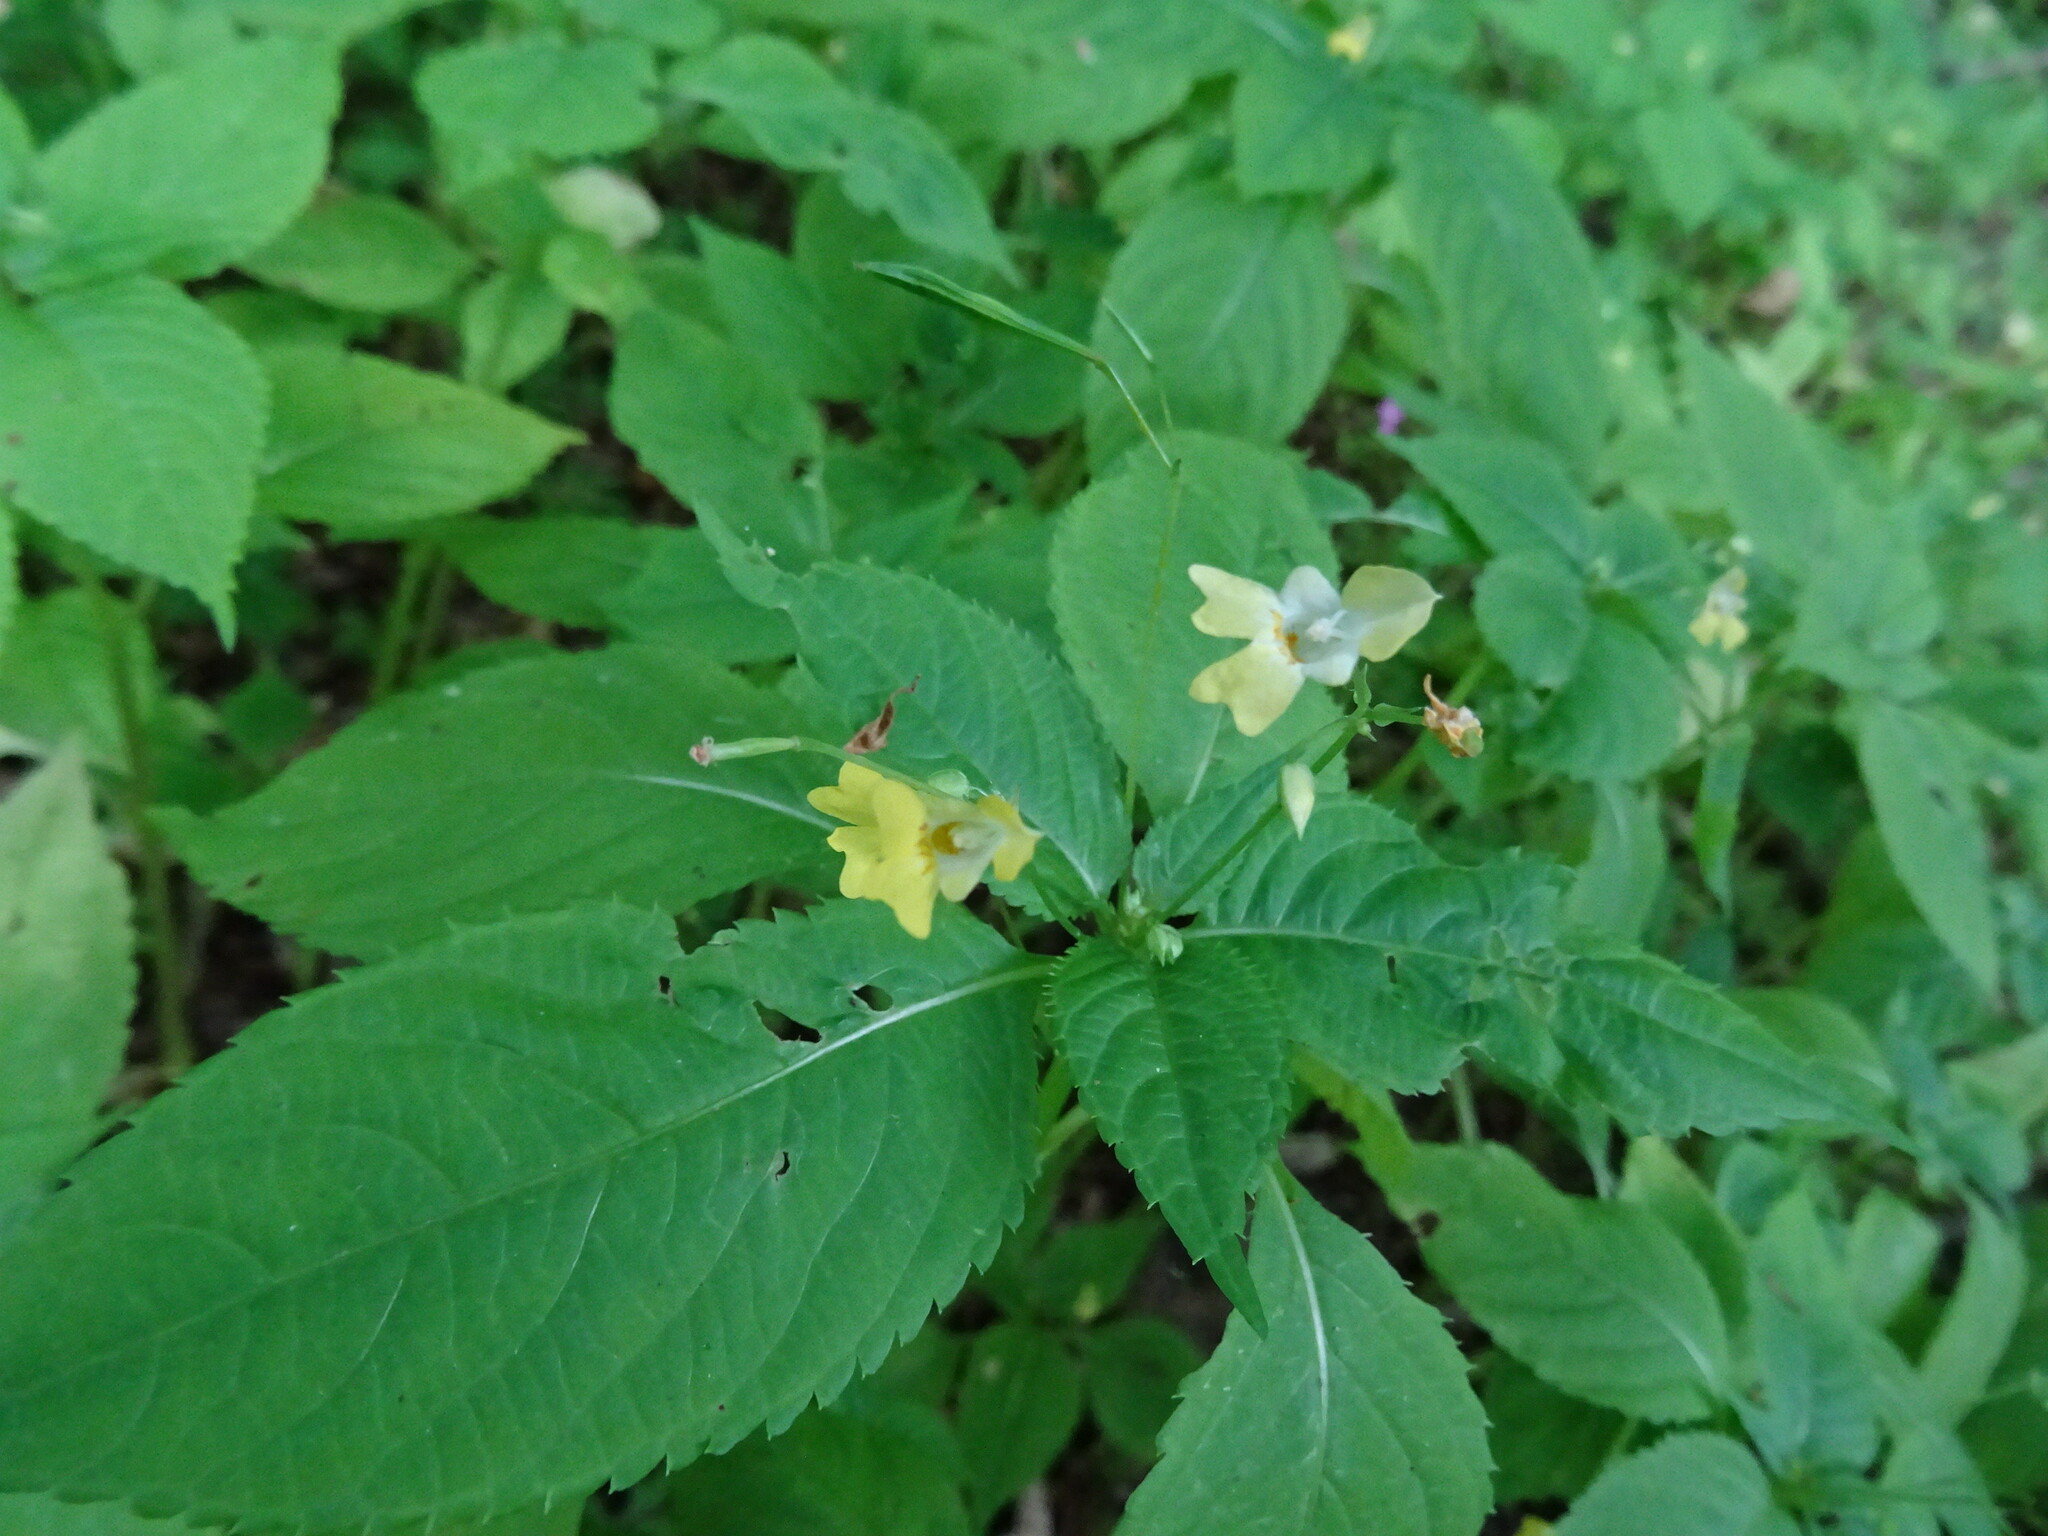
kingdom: Plantae
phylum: Tracheophyta
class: Magnoliopsida
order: Ericales
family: Balsaminaceae
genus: Impatiens
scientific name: Impatiens parviflora
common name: Small balsam
